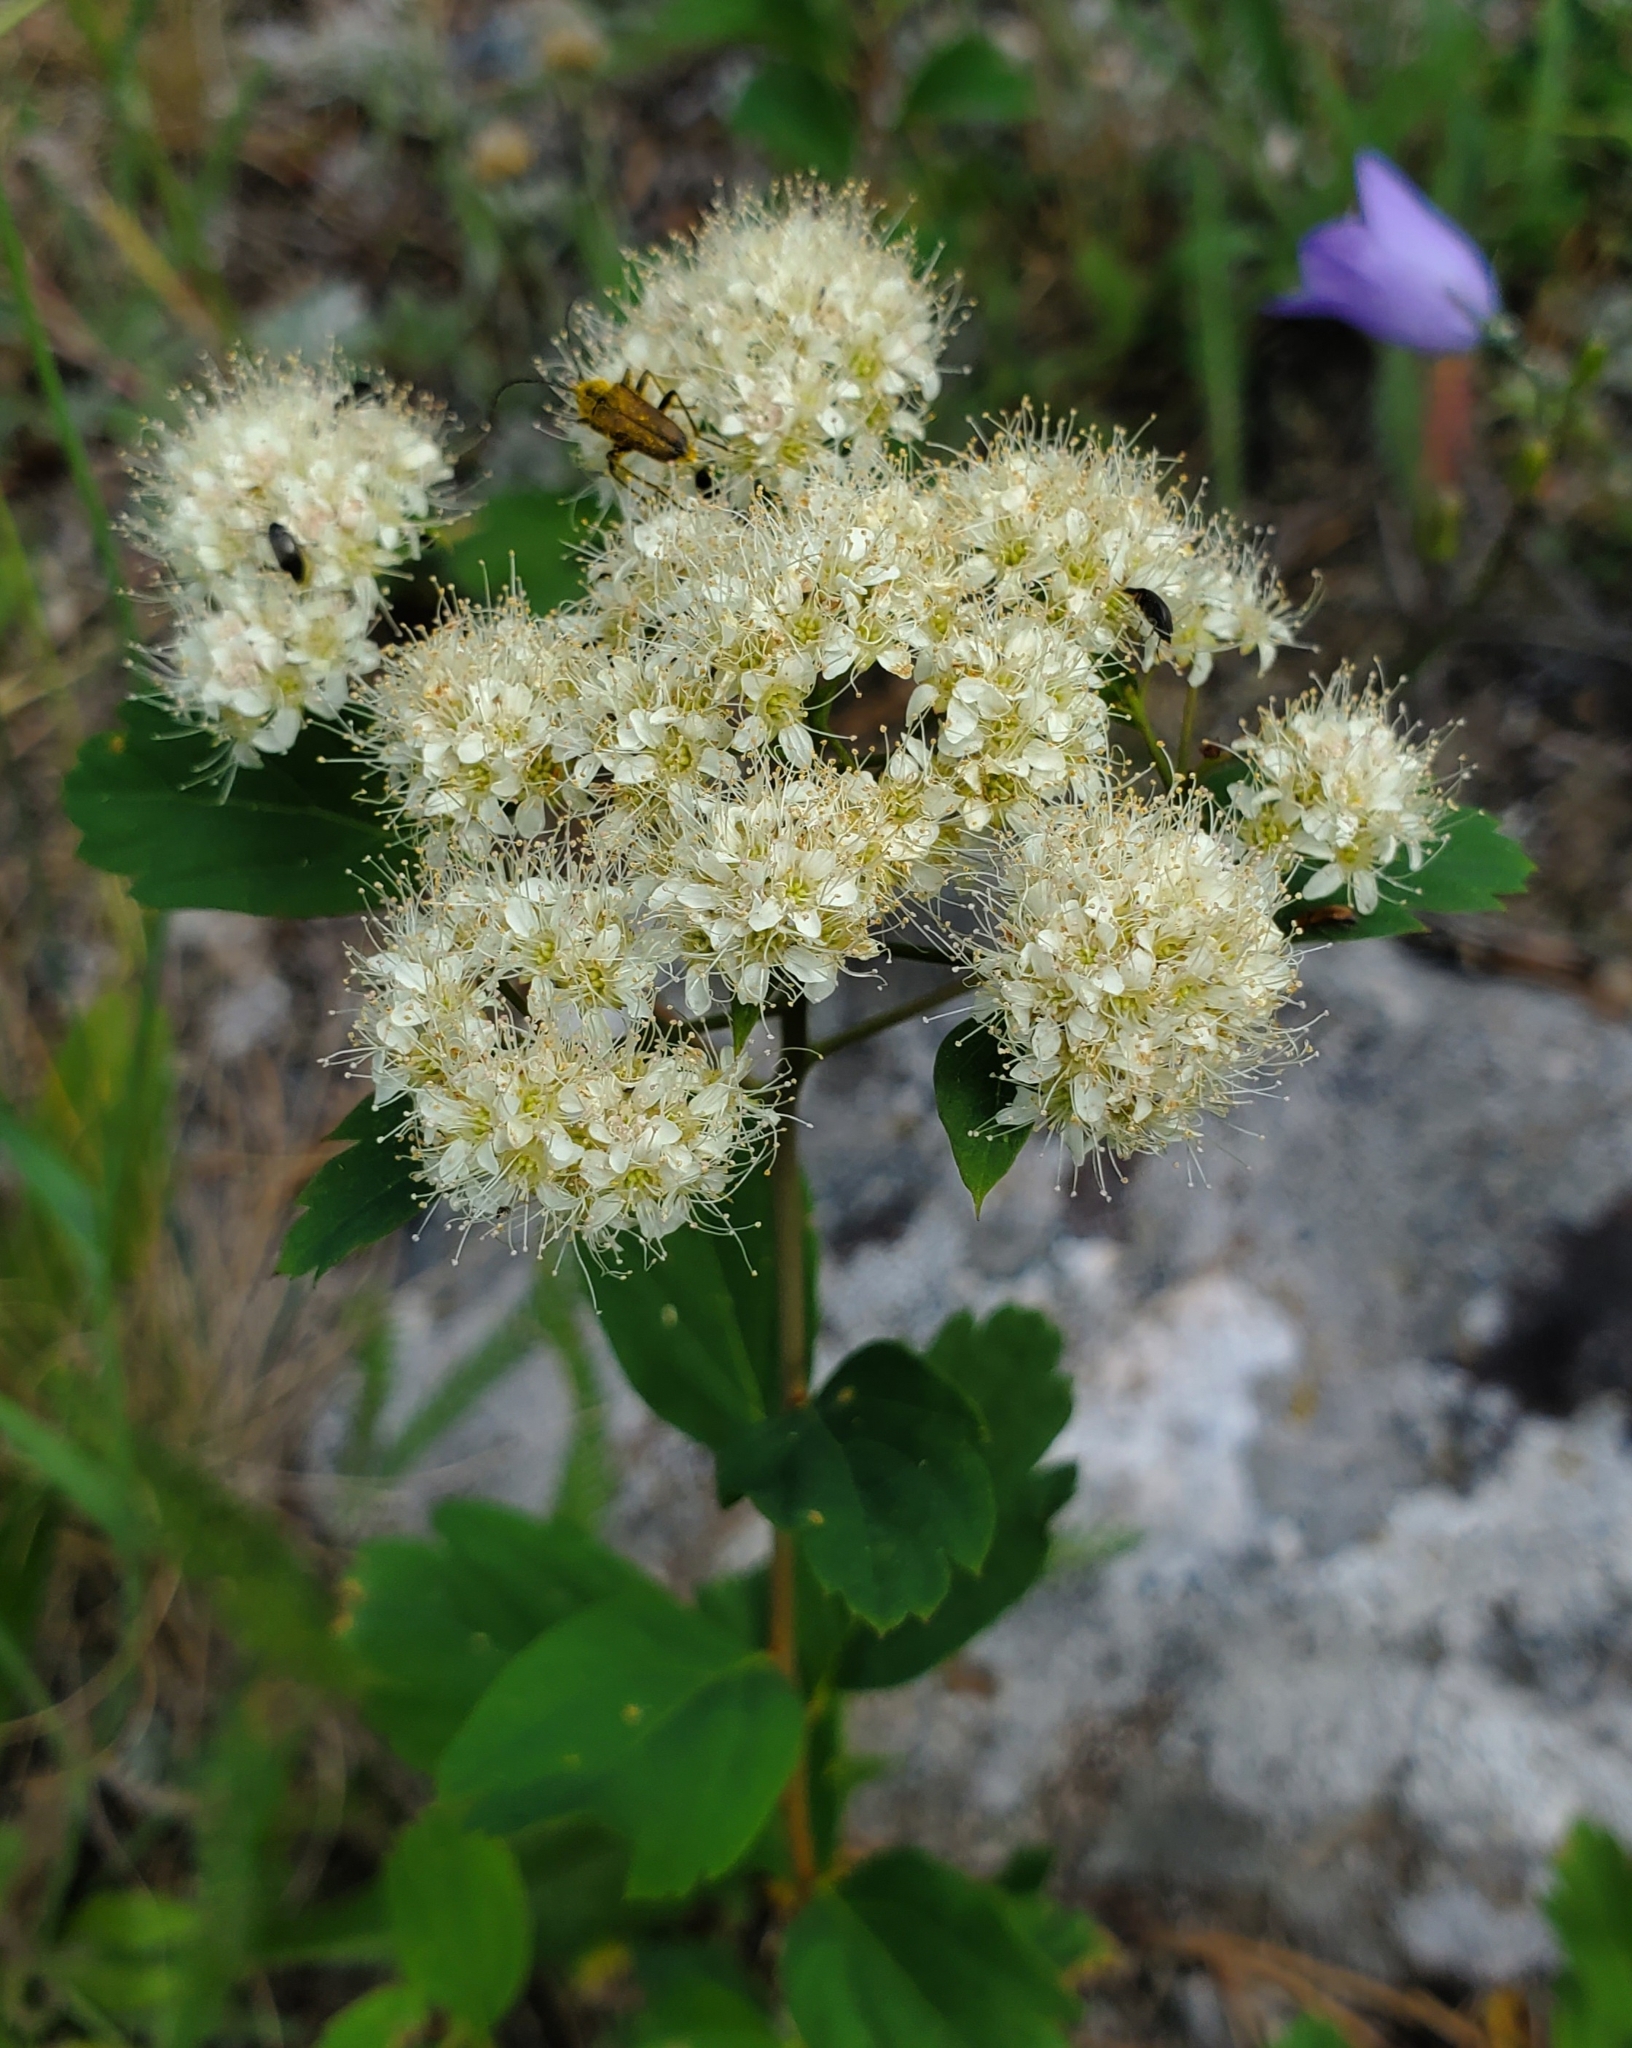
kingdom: Plantae
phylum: Tracheophyta
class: Magnoliopsida
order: Rosales
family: Rosaceae
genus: Spiraea
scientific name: Spiraea lucida
